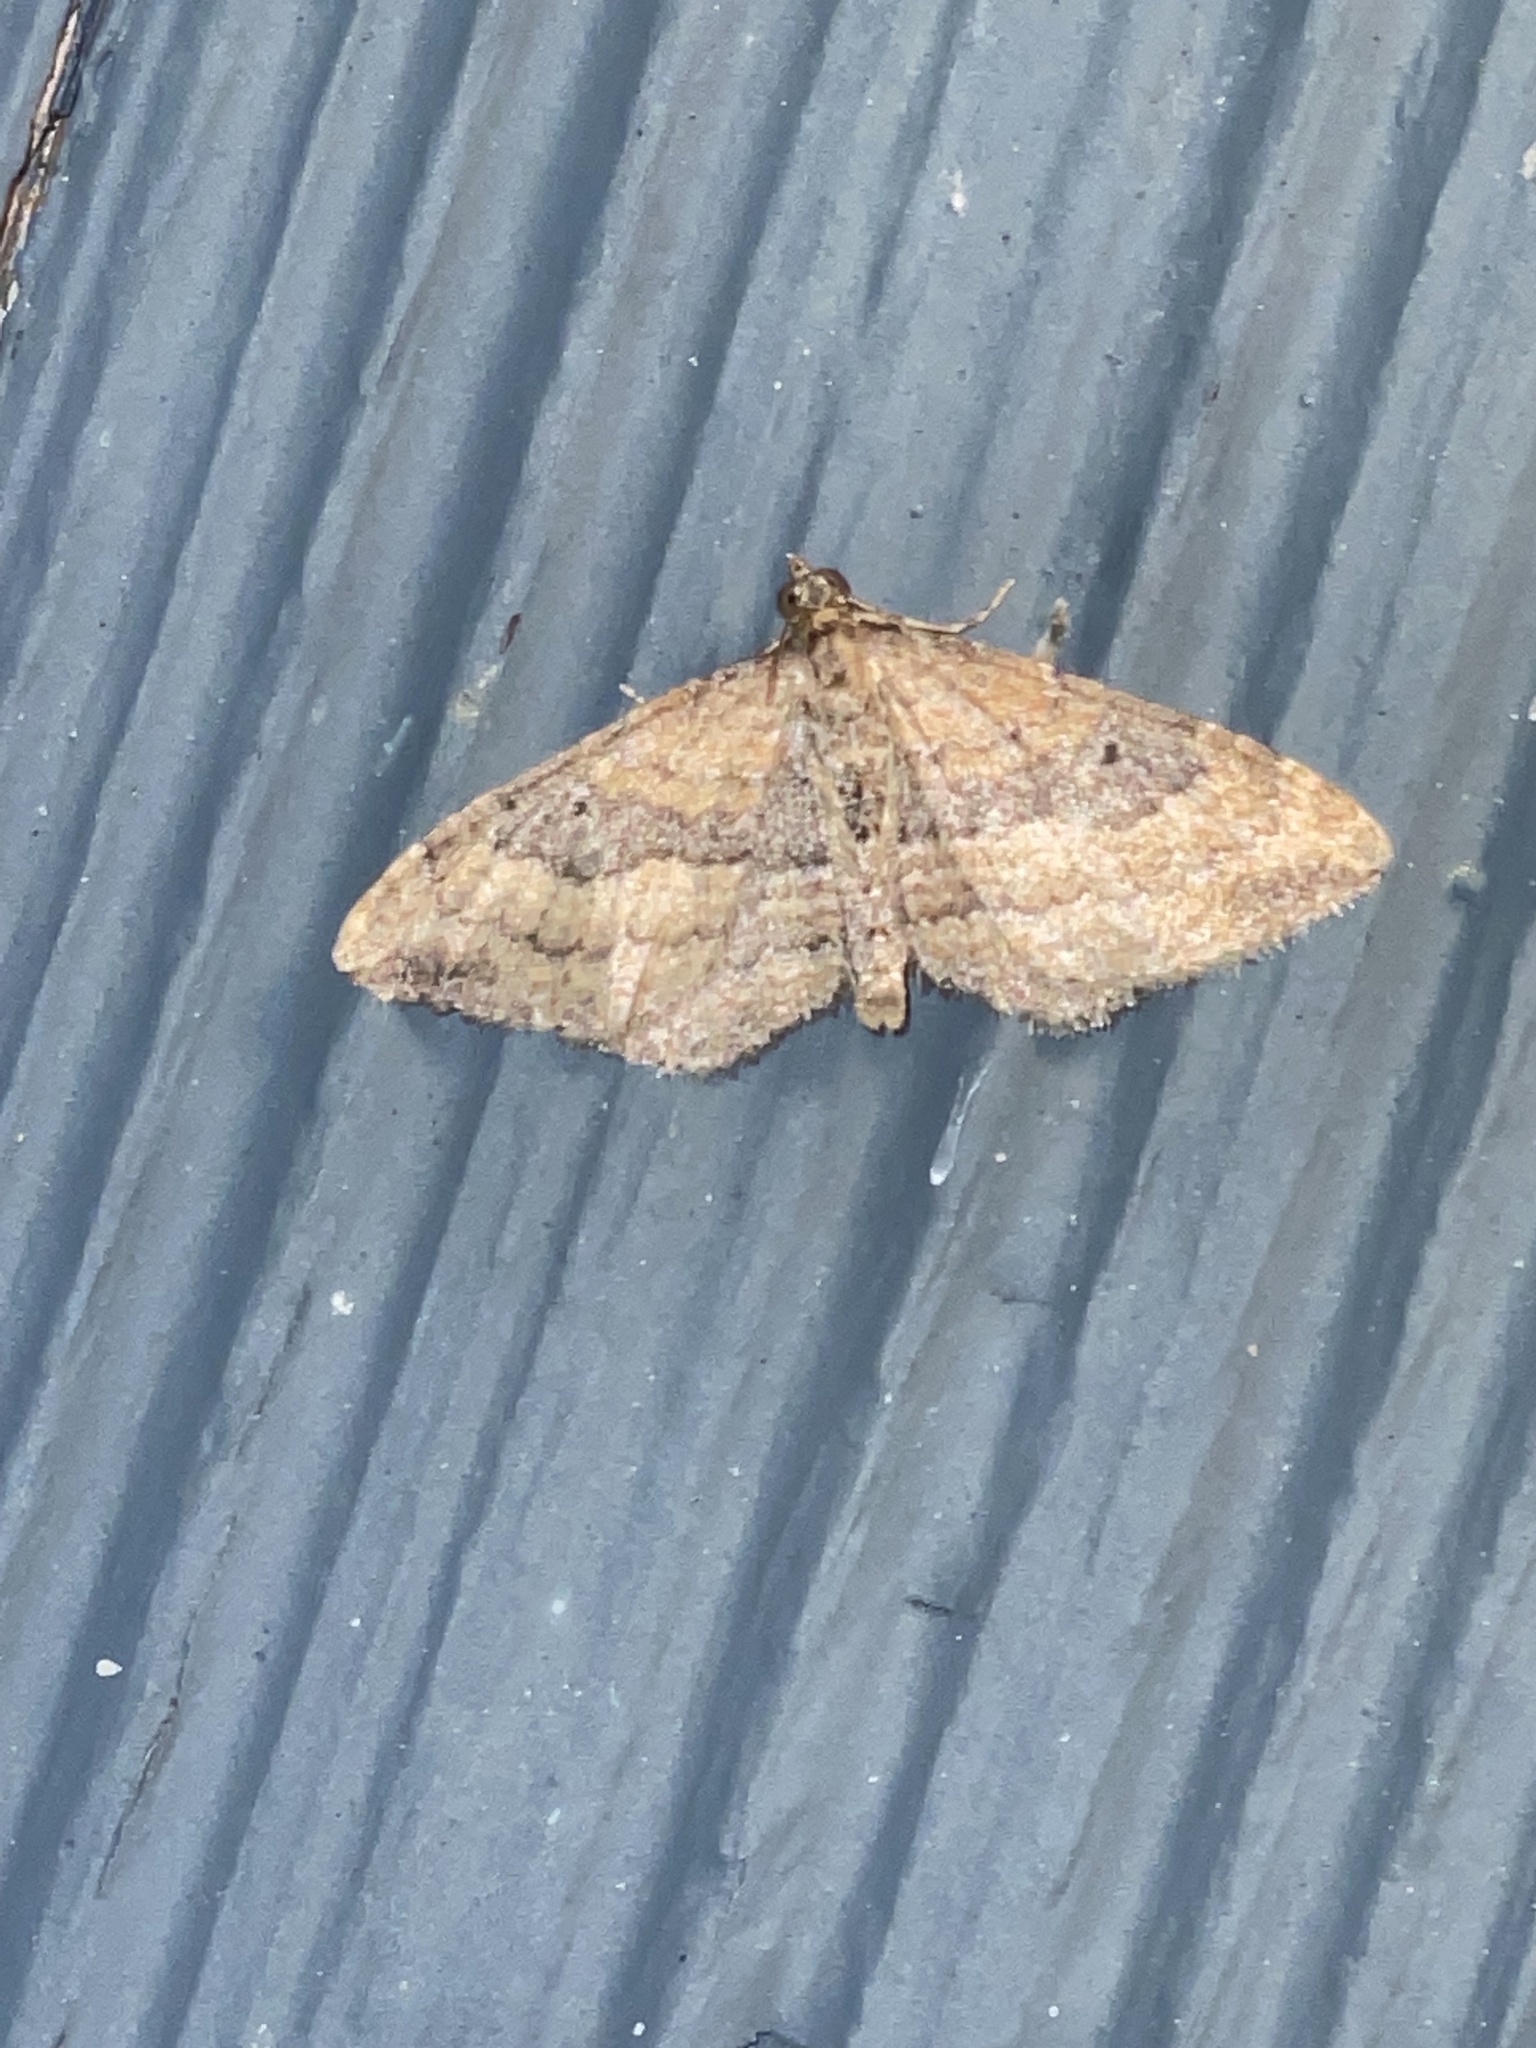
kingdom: Animalia
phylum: Arthropoda
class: Insecta
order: Lepidoptera
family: Geometridae
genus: Orthonama
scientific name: Orthonama obstipata
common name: The gem
